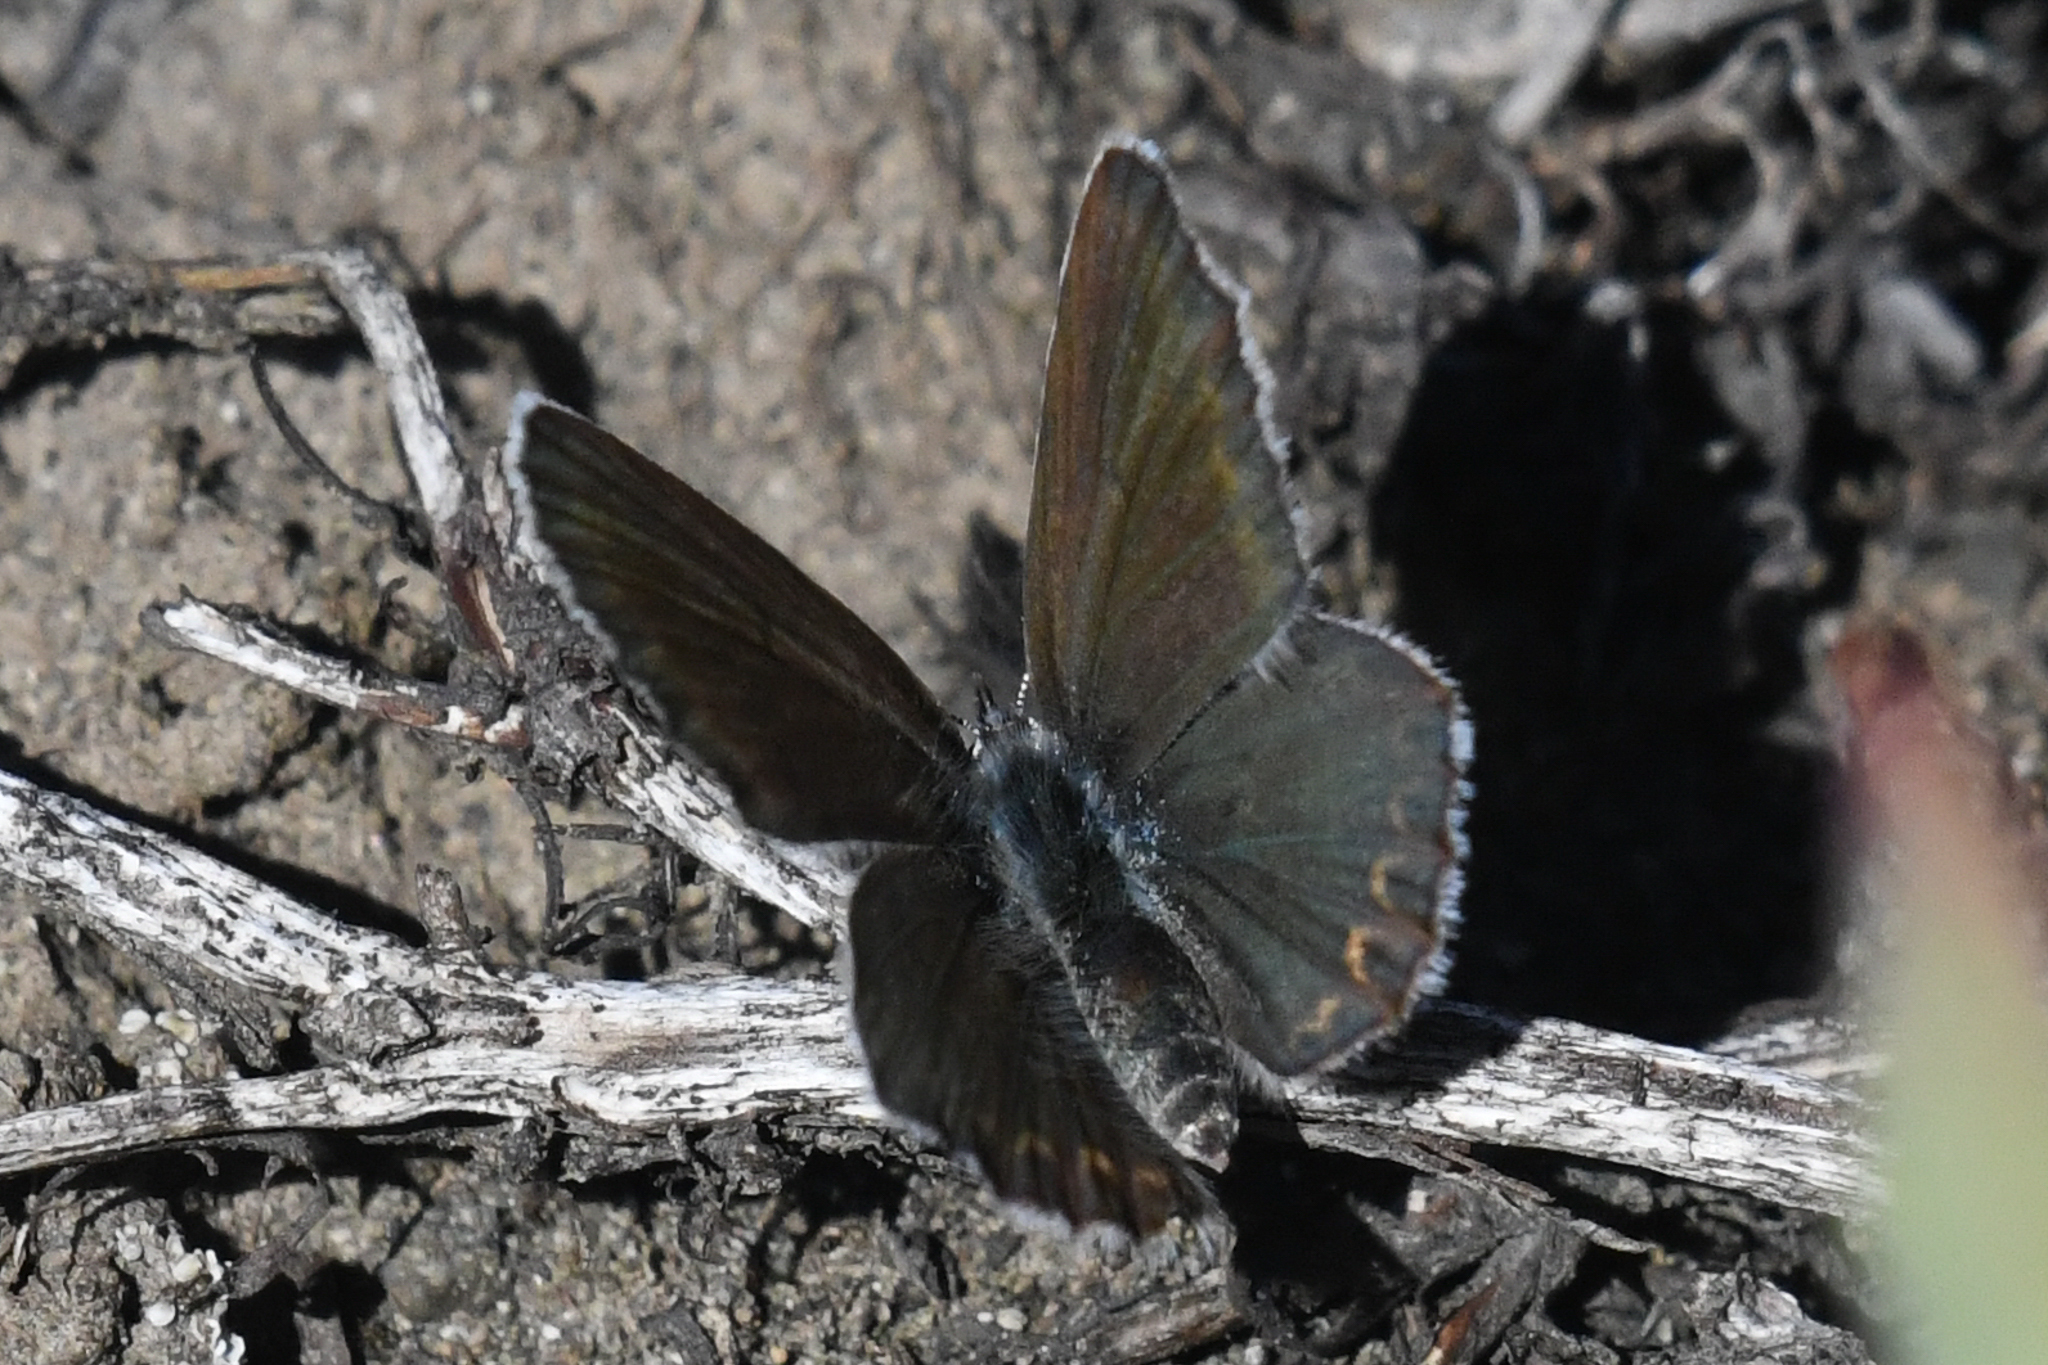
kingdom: Animalia
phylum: Arthropoda
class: Insecta
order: Lepidoptera
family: Lycaenidae
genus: Lycaeides
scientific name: Lycaeides idas
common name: Northern blue
